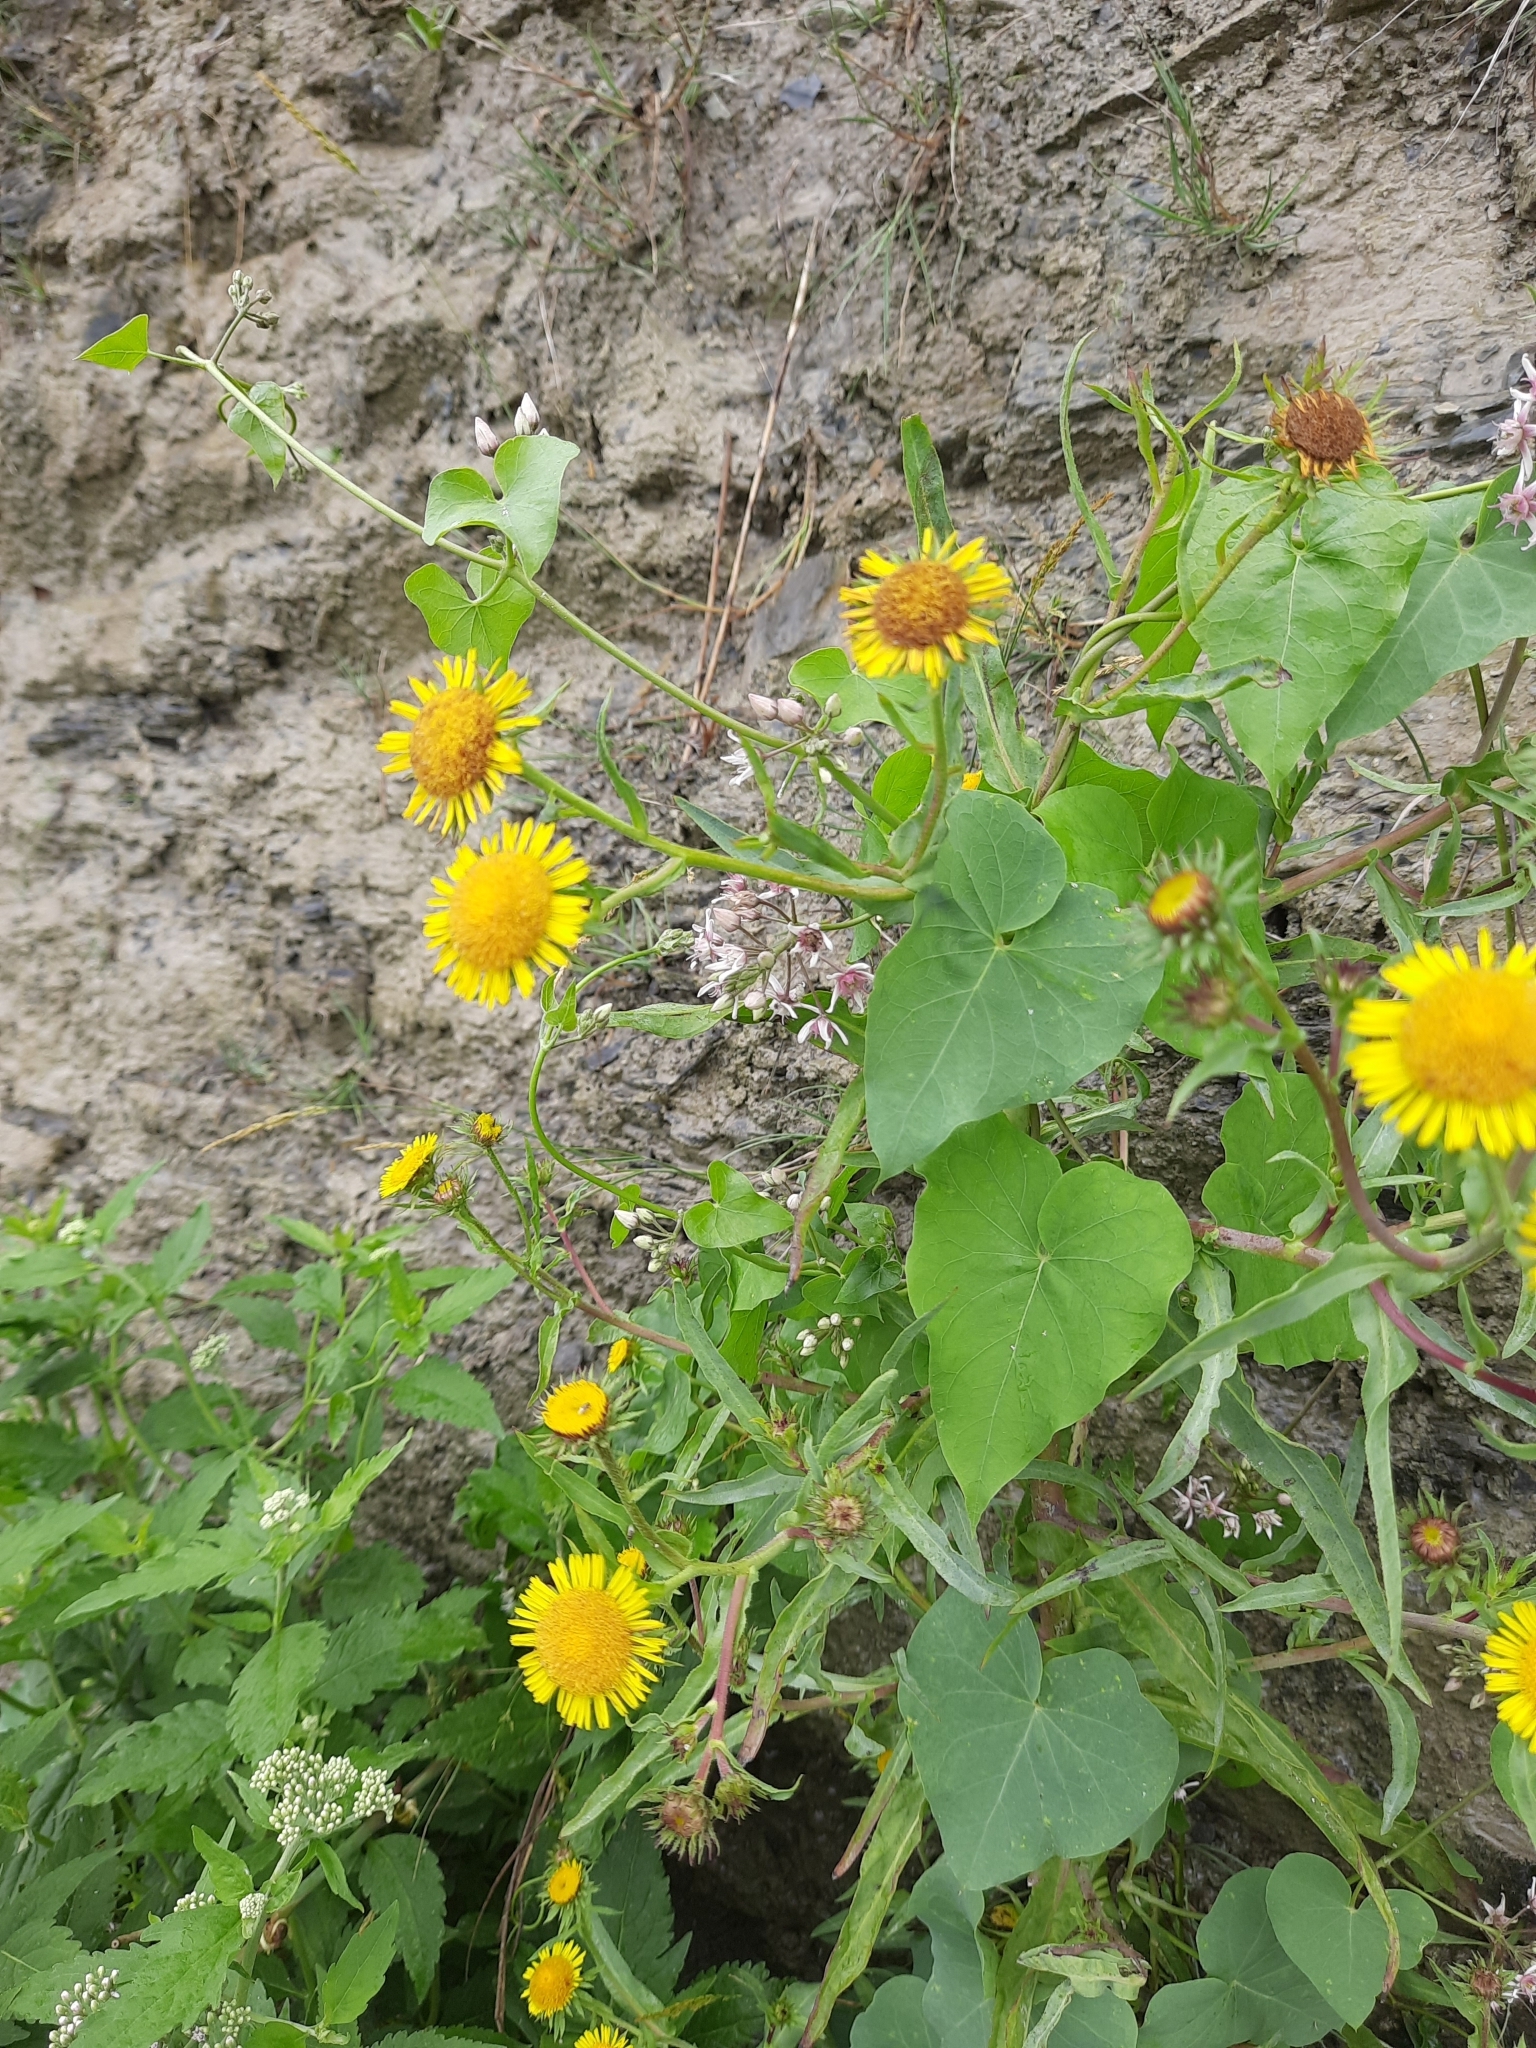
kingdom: Plantae
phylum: Tracheophyta
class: Magnoliopsida
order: Asterales
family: Asteraceae
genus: Pulicaria
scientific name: Pulicaria dysenterica
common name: Common fleabane
